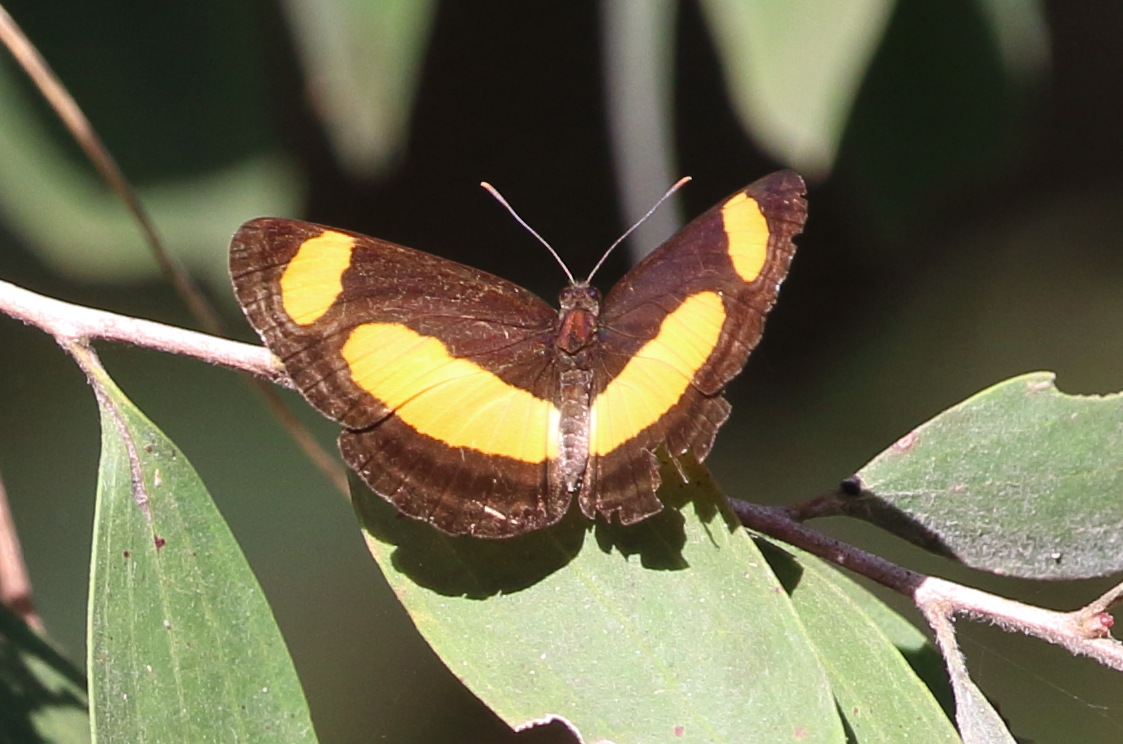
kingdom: Animalia
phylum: Arthropoda
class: Insecta
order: Lepidoptera
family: Nymphalidae
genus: Pantoporia
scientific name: Pantoporia consimilis
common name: Orange plane
